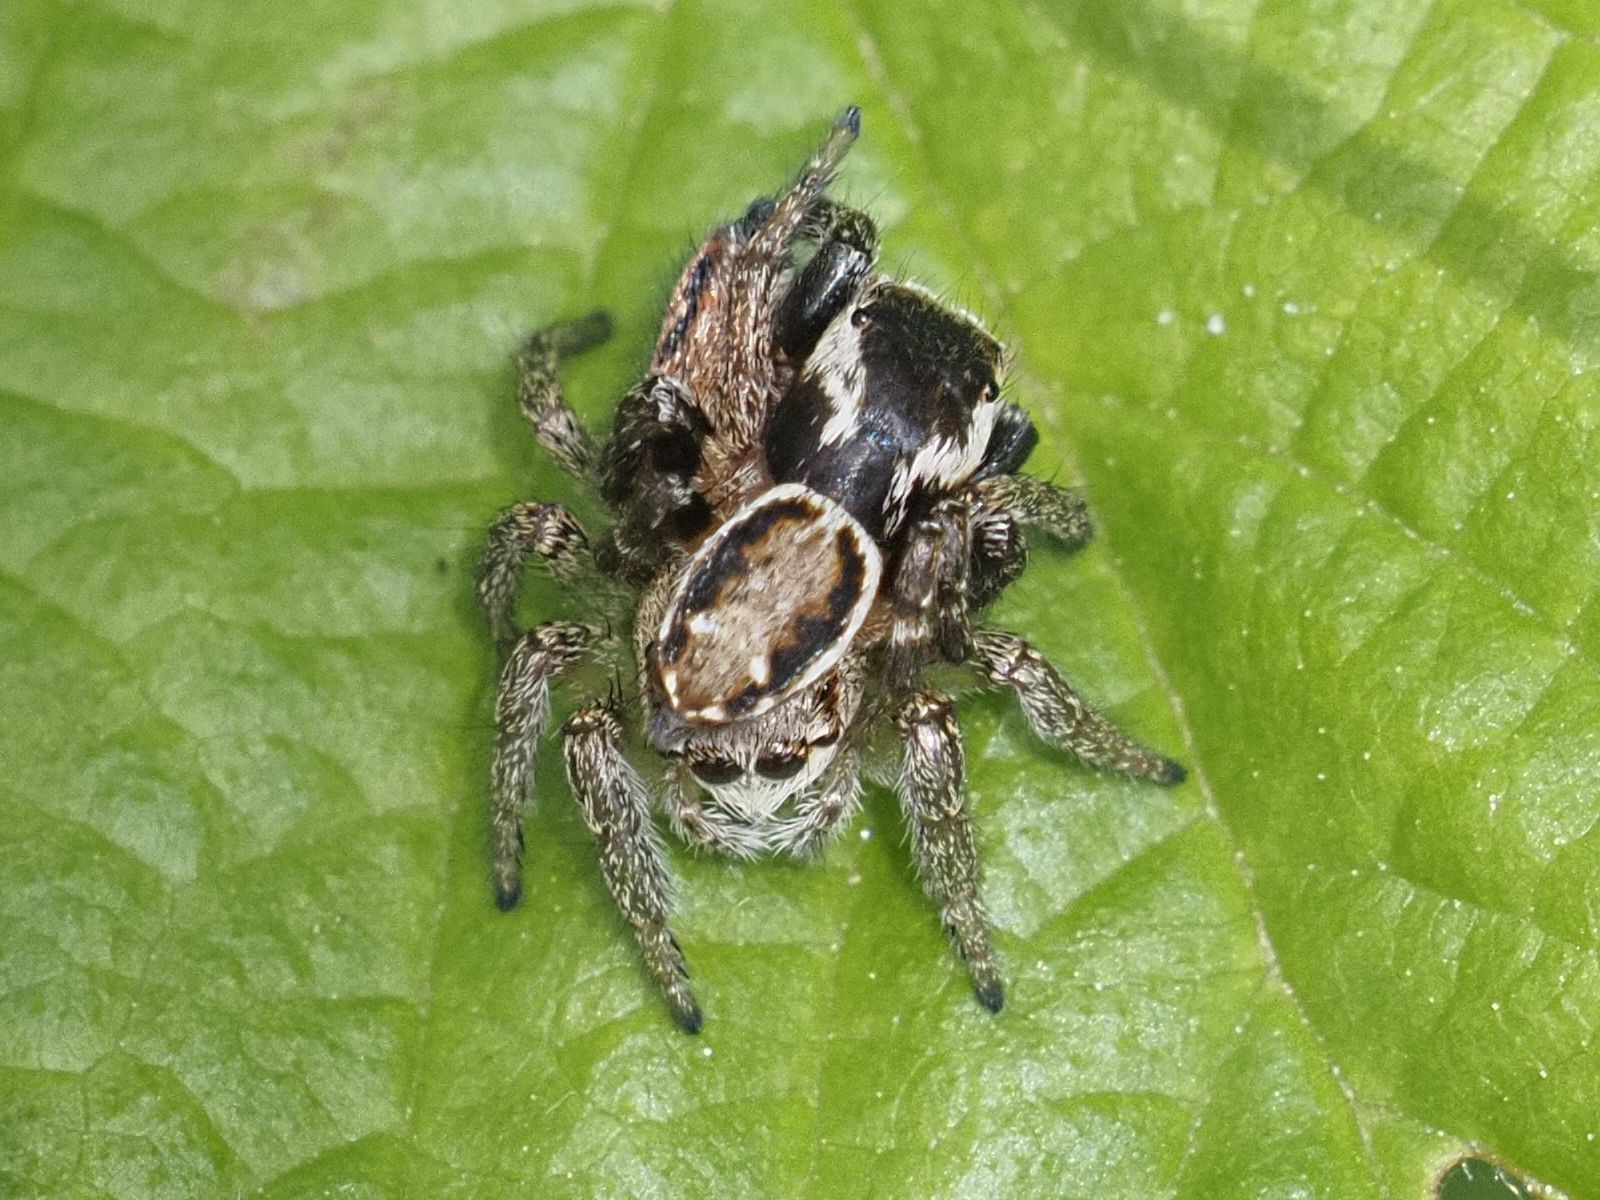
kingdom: Animalia
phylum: Arthropoda
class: Arachnida
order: Araneae
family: Salticidae
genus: Evarcha
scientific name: Evarcha falcata
